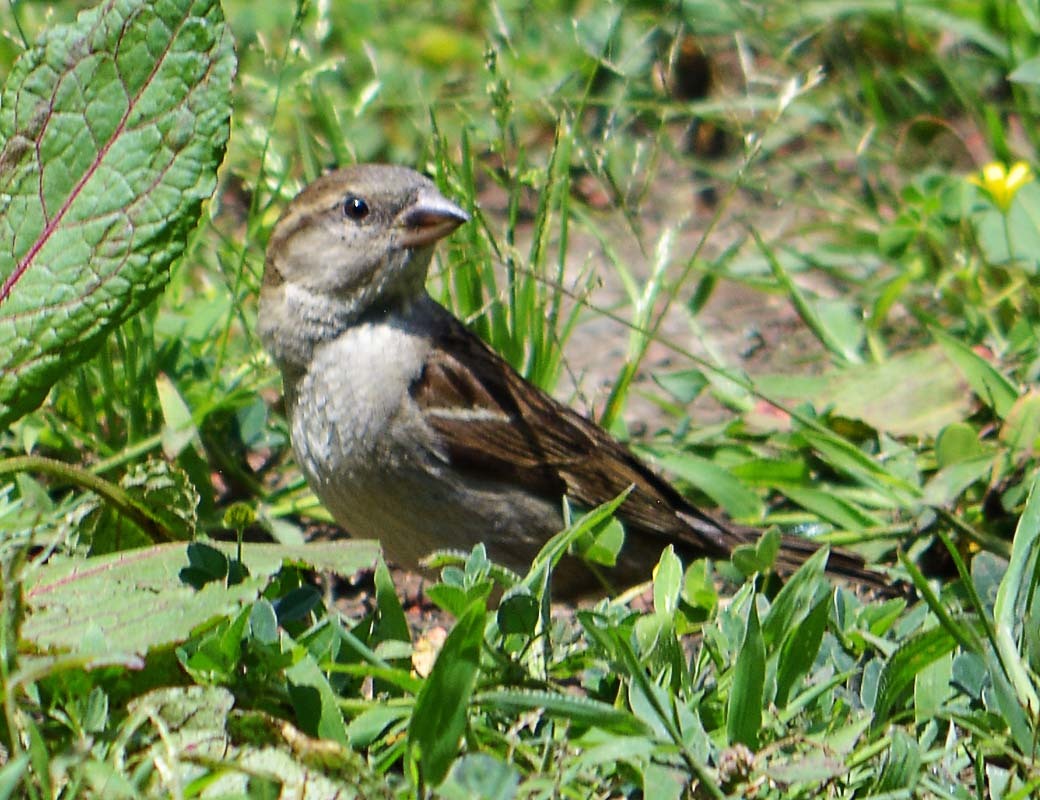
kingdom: Animalia
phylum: Chordata
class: Aves
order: Passeriformes
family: Passeridae
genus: Passer
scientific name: Passer domesticus
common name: House sparrow
